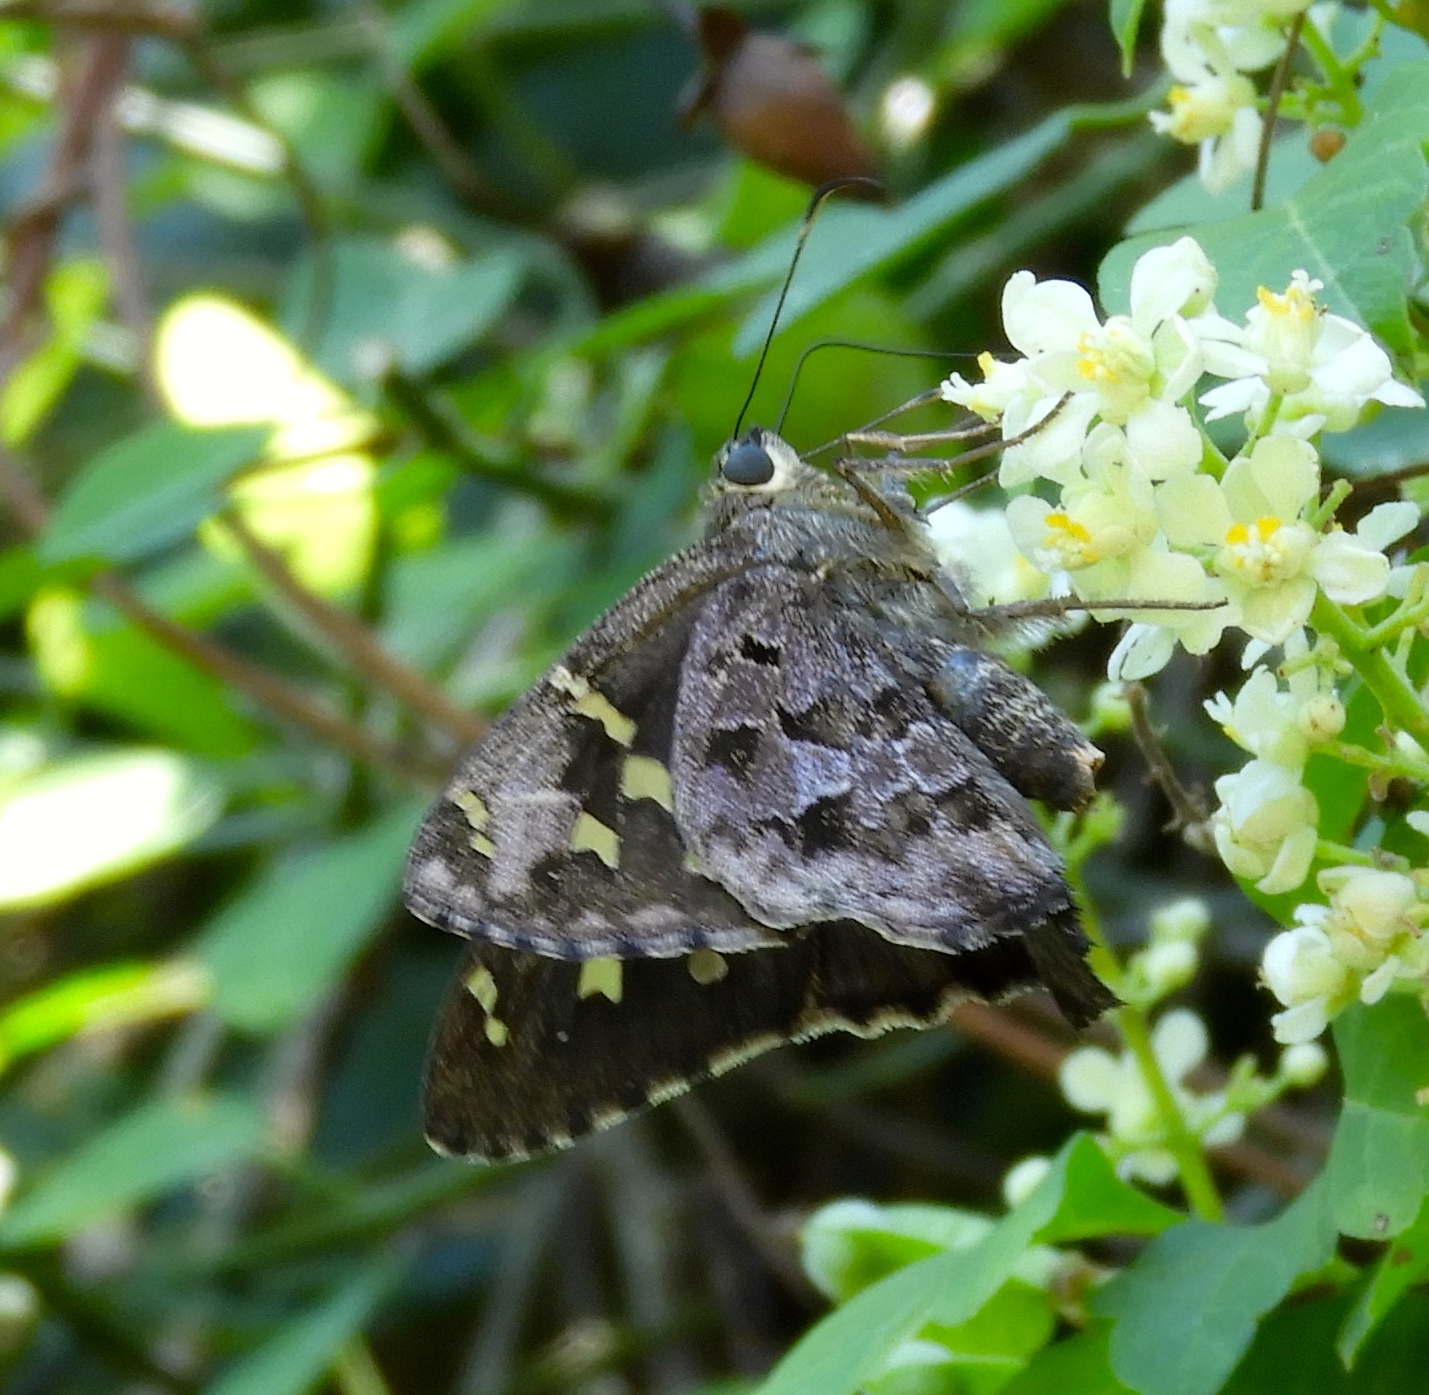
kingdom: Animalia
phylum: Arthropoda
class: Insecta
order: Lepidoptera
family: Hesperiidae
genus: Thorybes
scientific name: Thorybes
